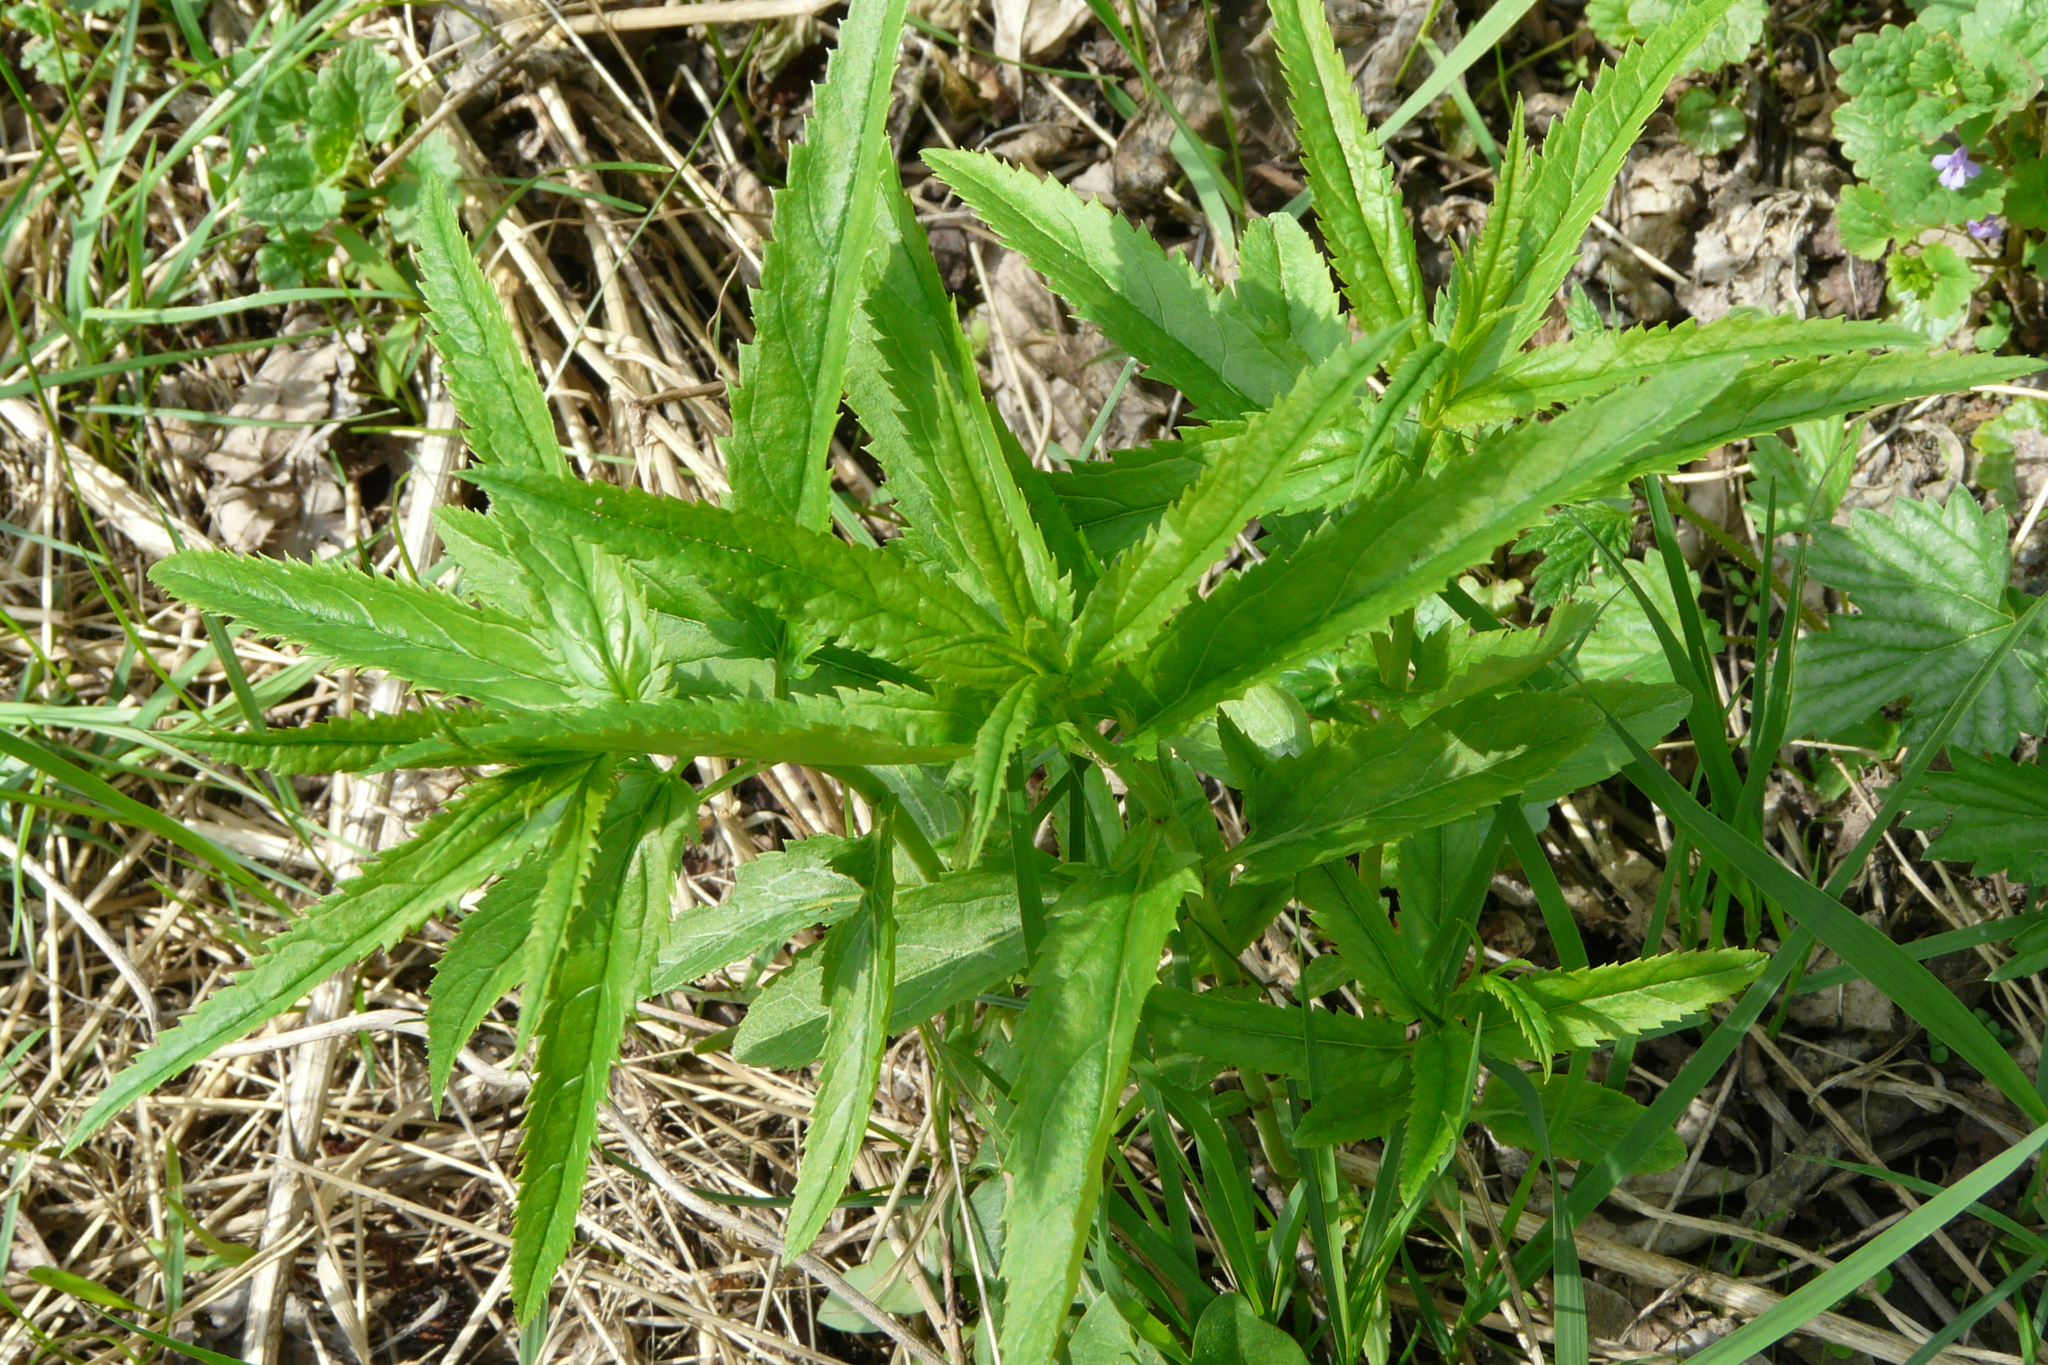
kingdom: Plantae
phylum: Tracheophyta
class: Magnoliopsida
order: Lamiales
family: Plantaginaceae
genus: Veronica
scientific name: Veronica longifolia
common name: Garden speedwell
